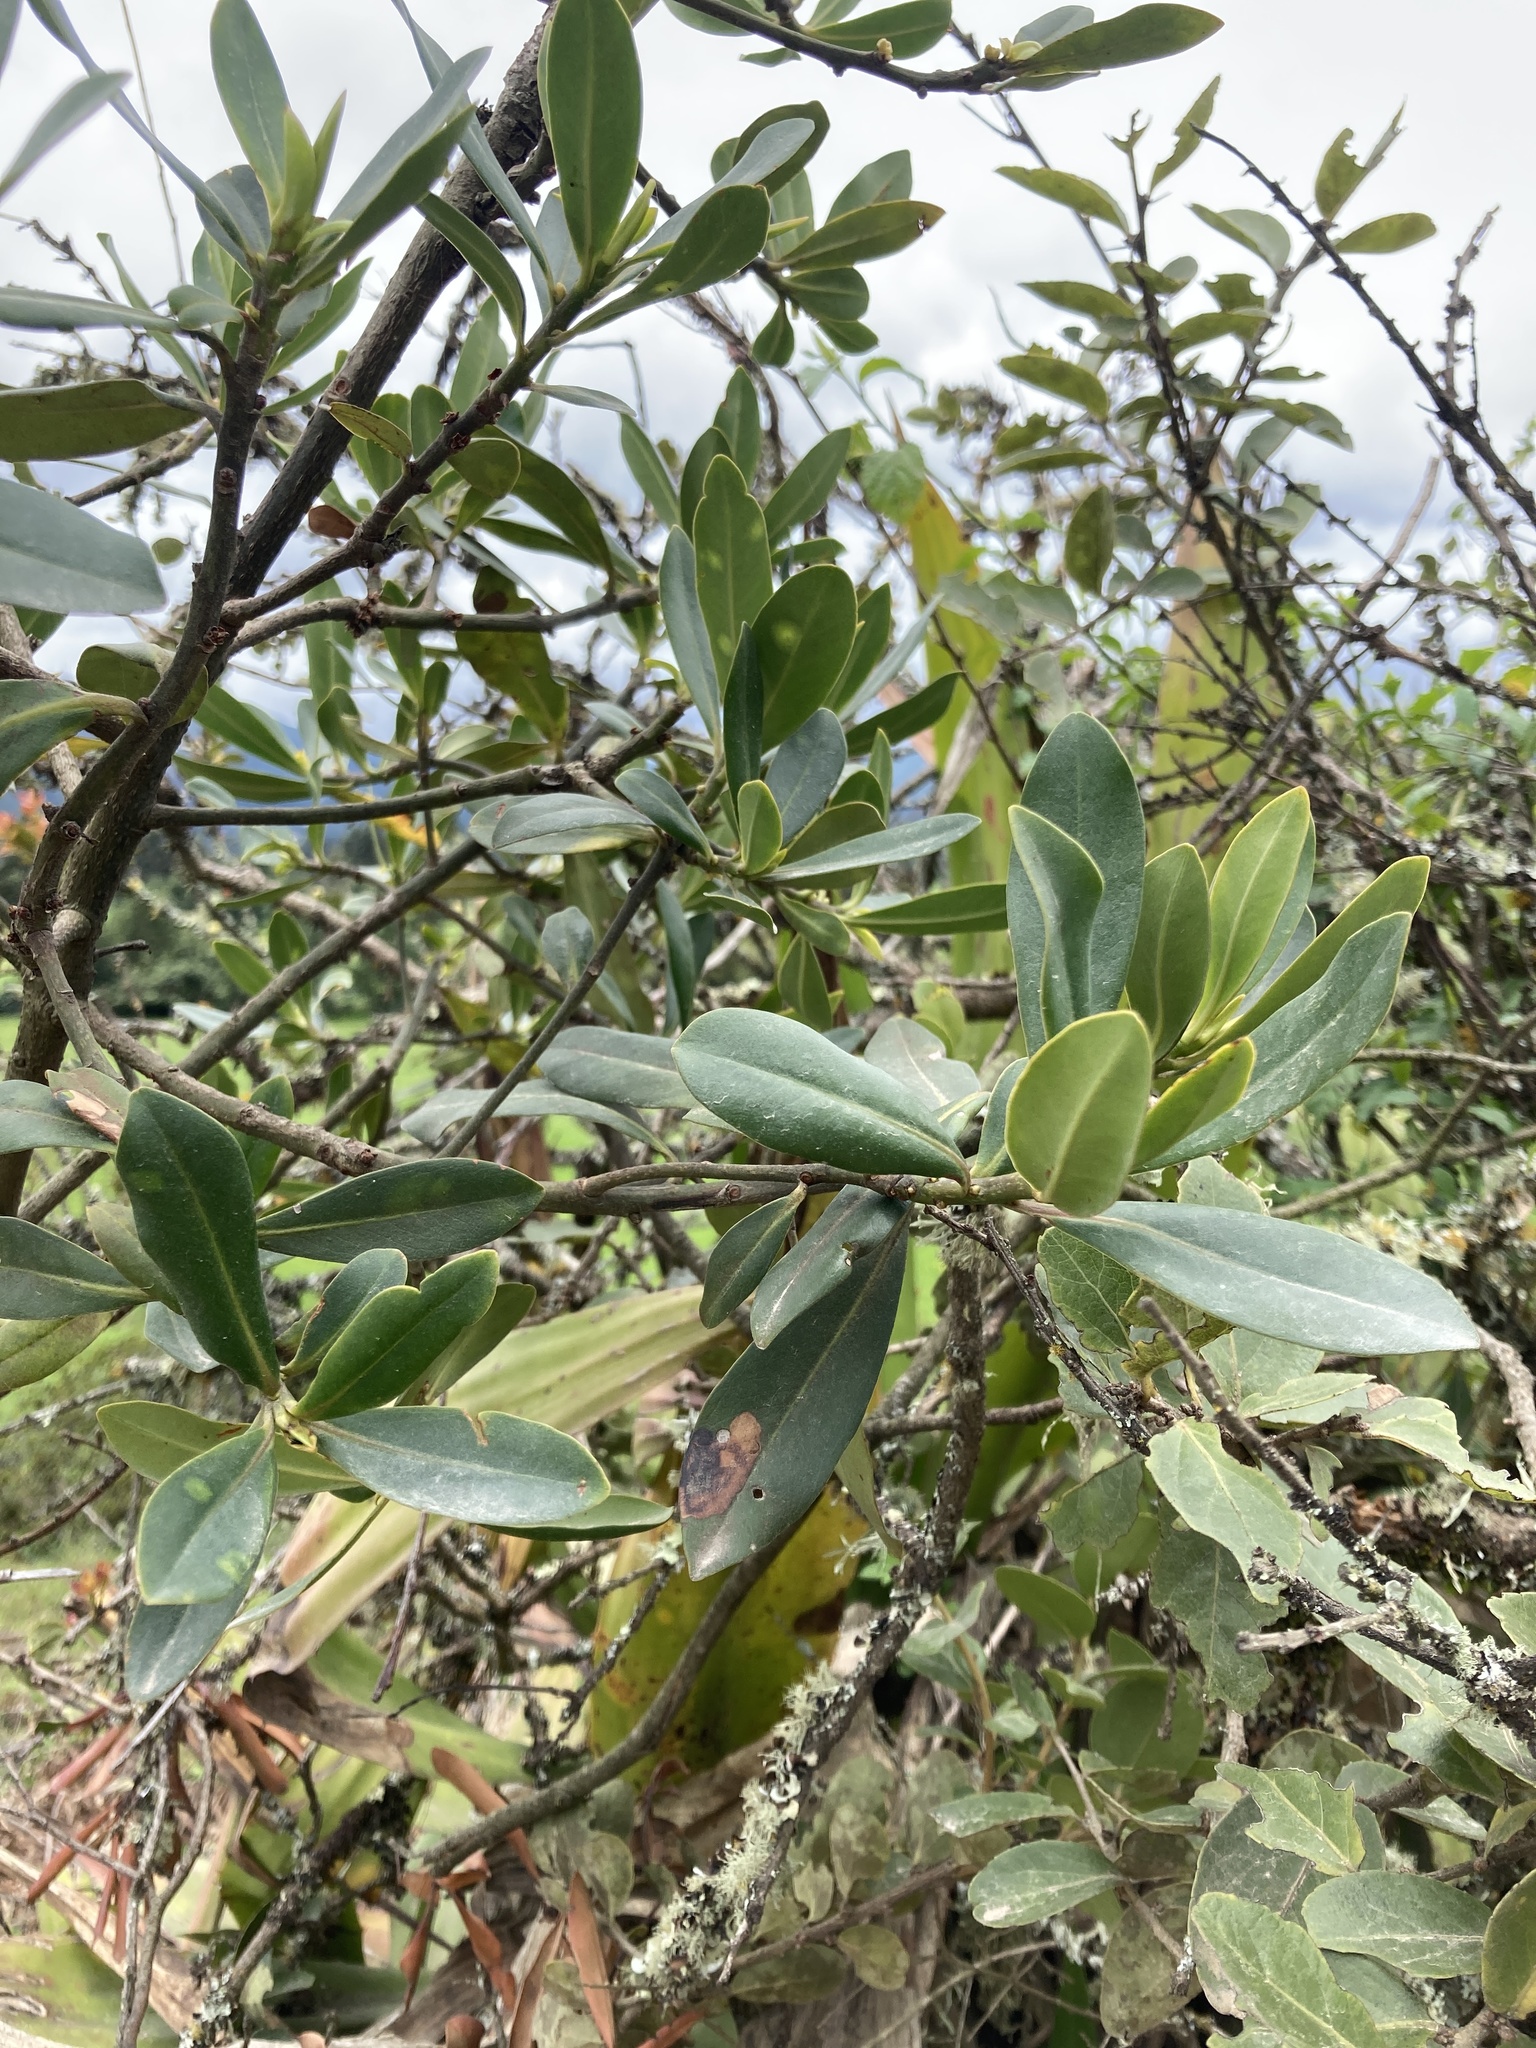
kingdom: Plantae
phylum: Tracheophyta
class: Magnoliopsida
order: Ericales
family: Primulaceae
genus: Myrsine
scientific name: Myrsine guianensis
